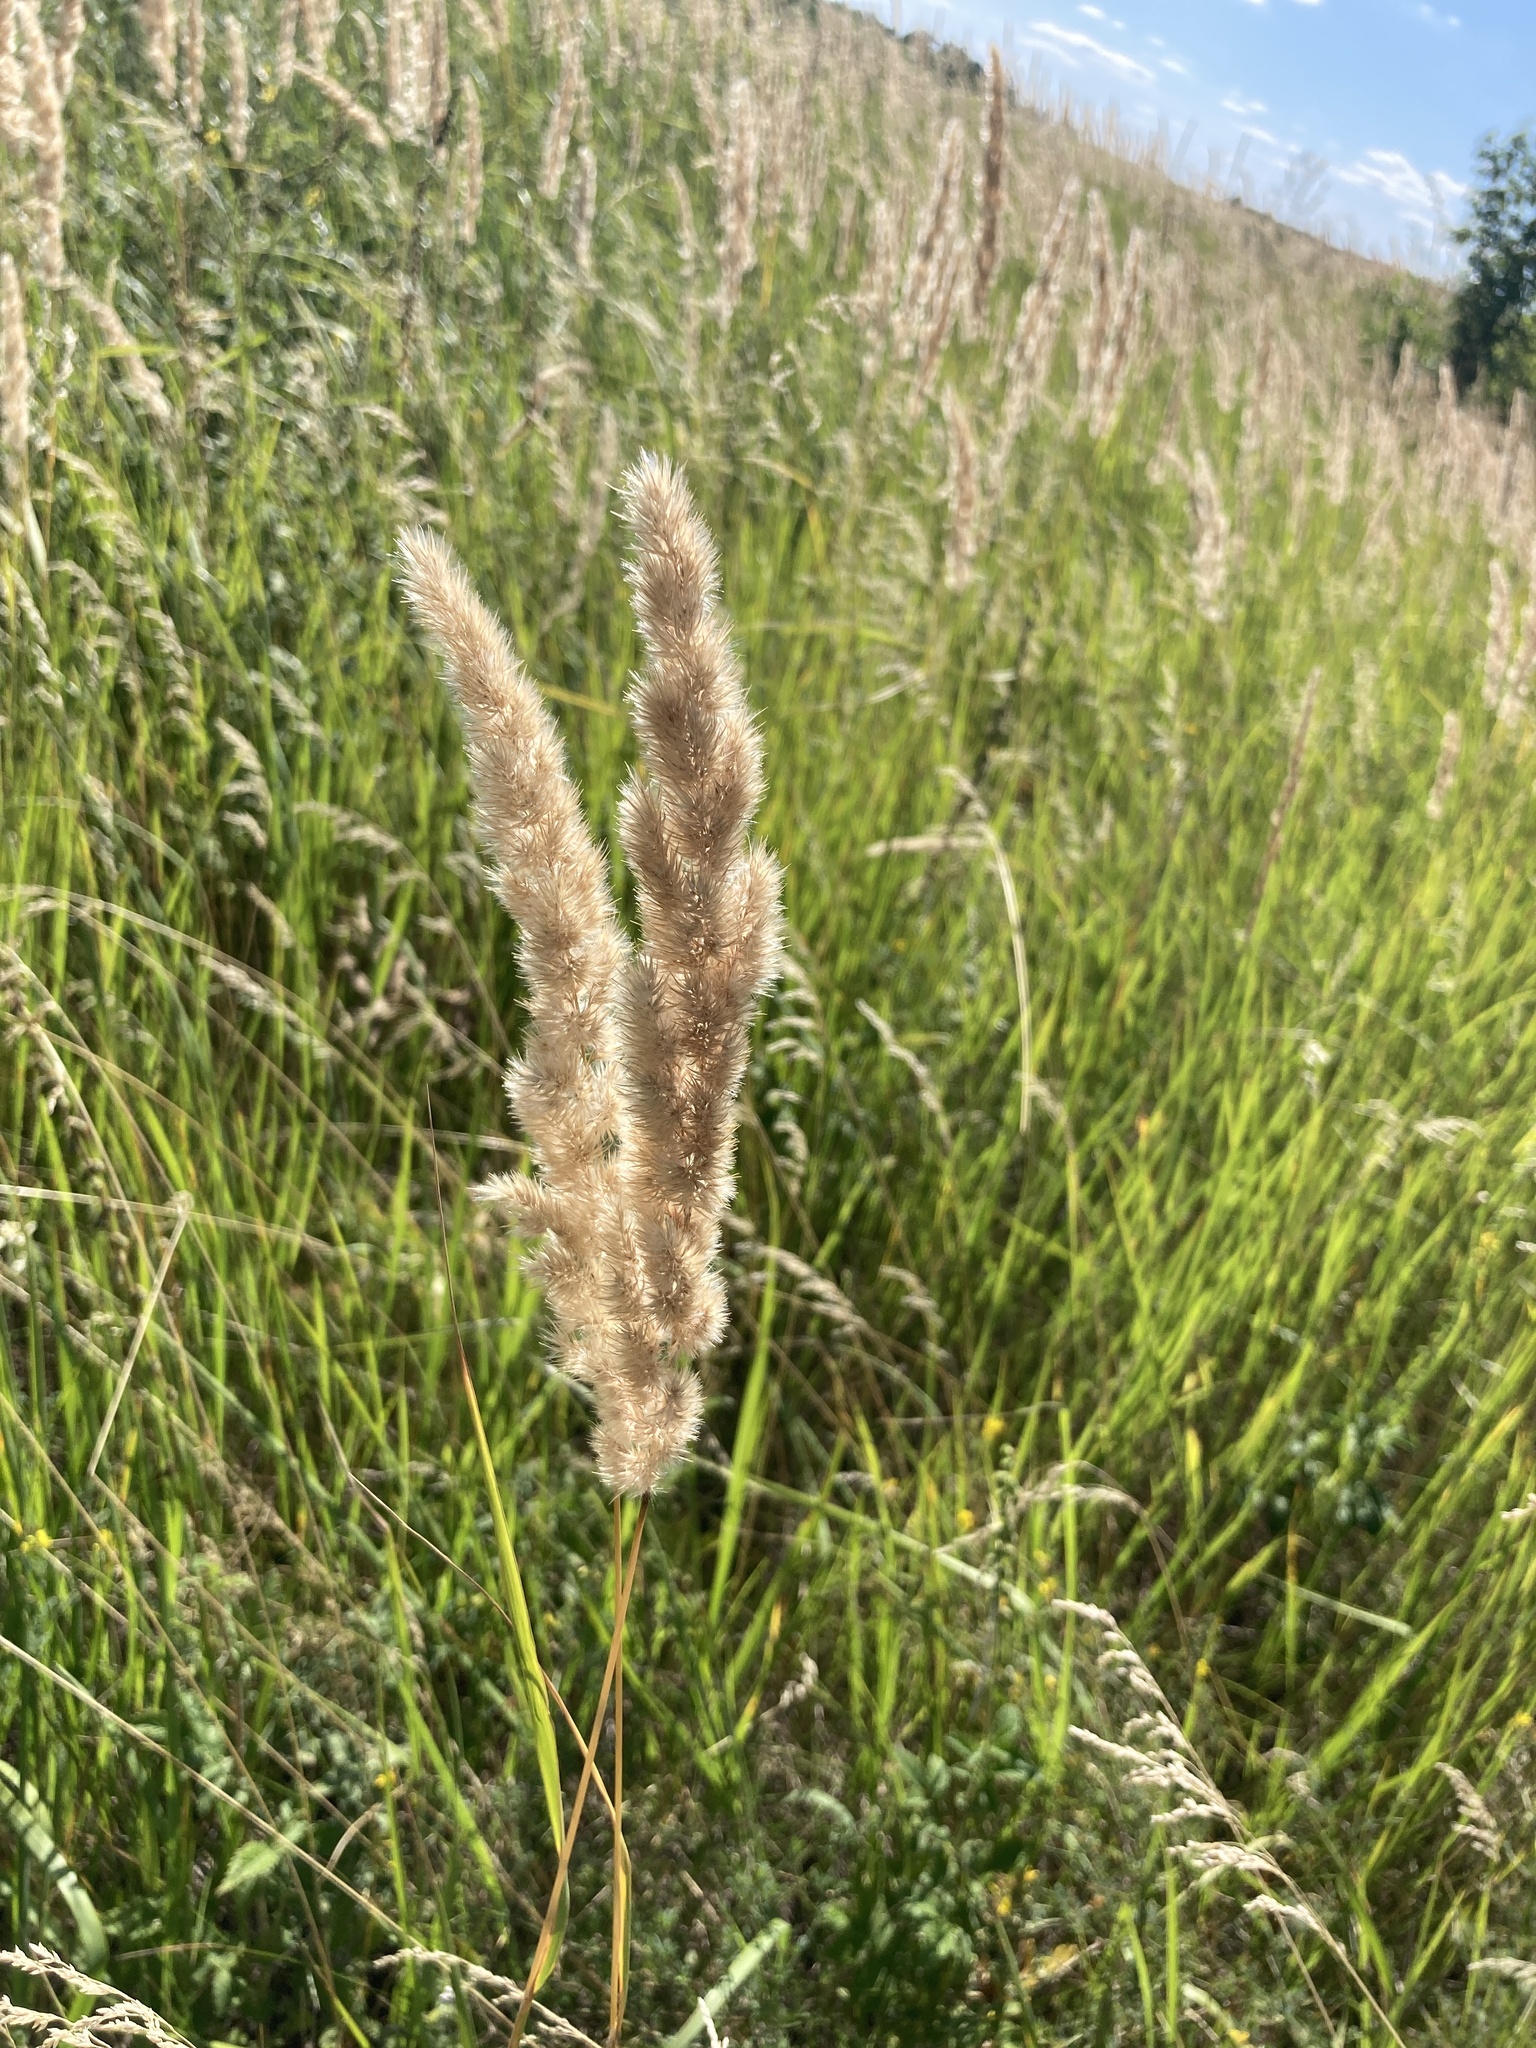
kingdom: Plantae
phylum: Tracheophyta
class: Liliopsida
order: Poales
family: Poaceae
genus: Calamagrostis
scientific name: Calamagrostis epigejos
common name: Wood small-reed
